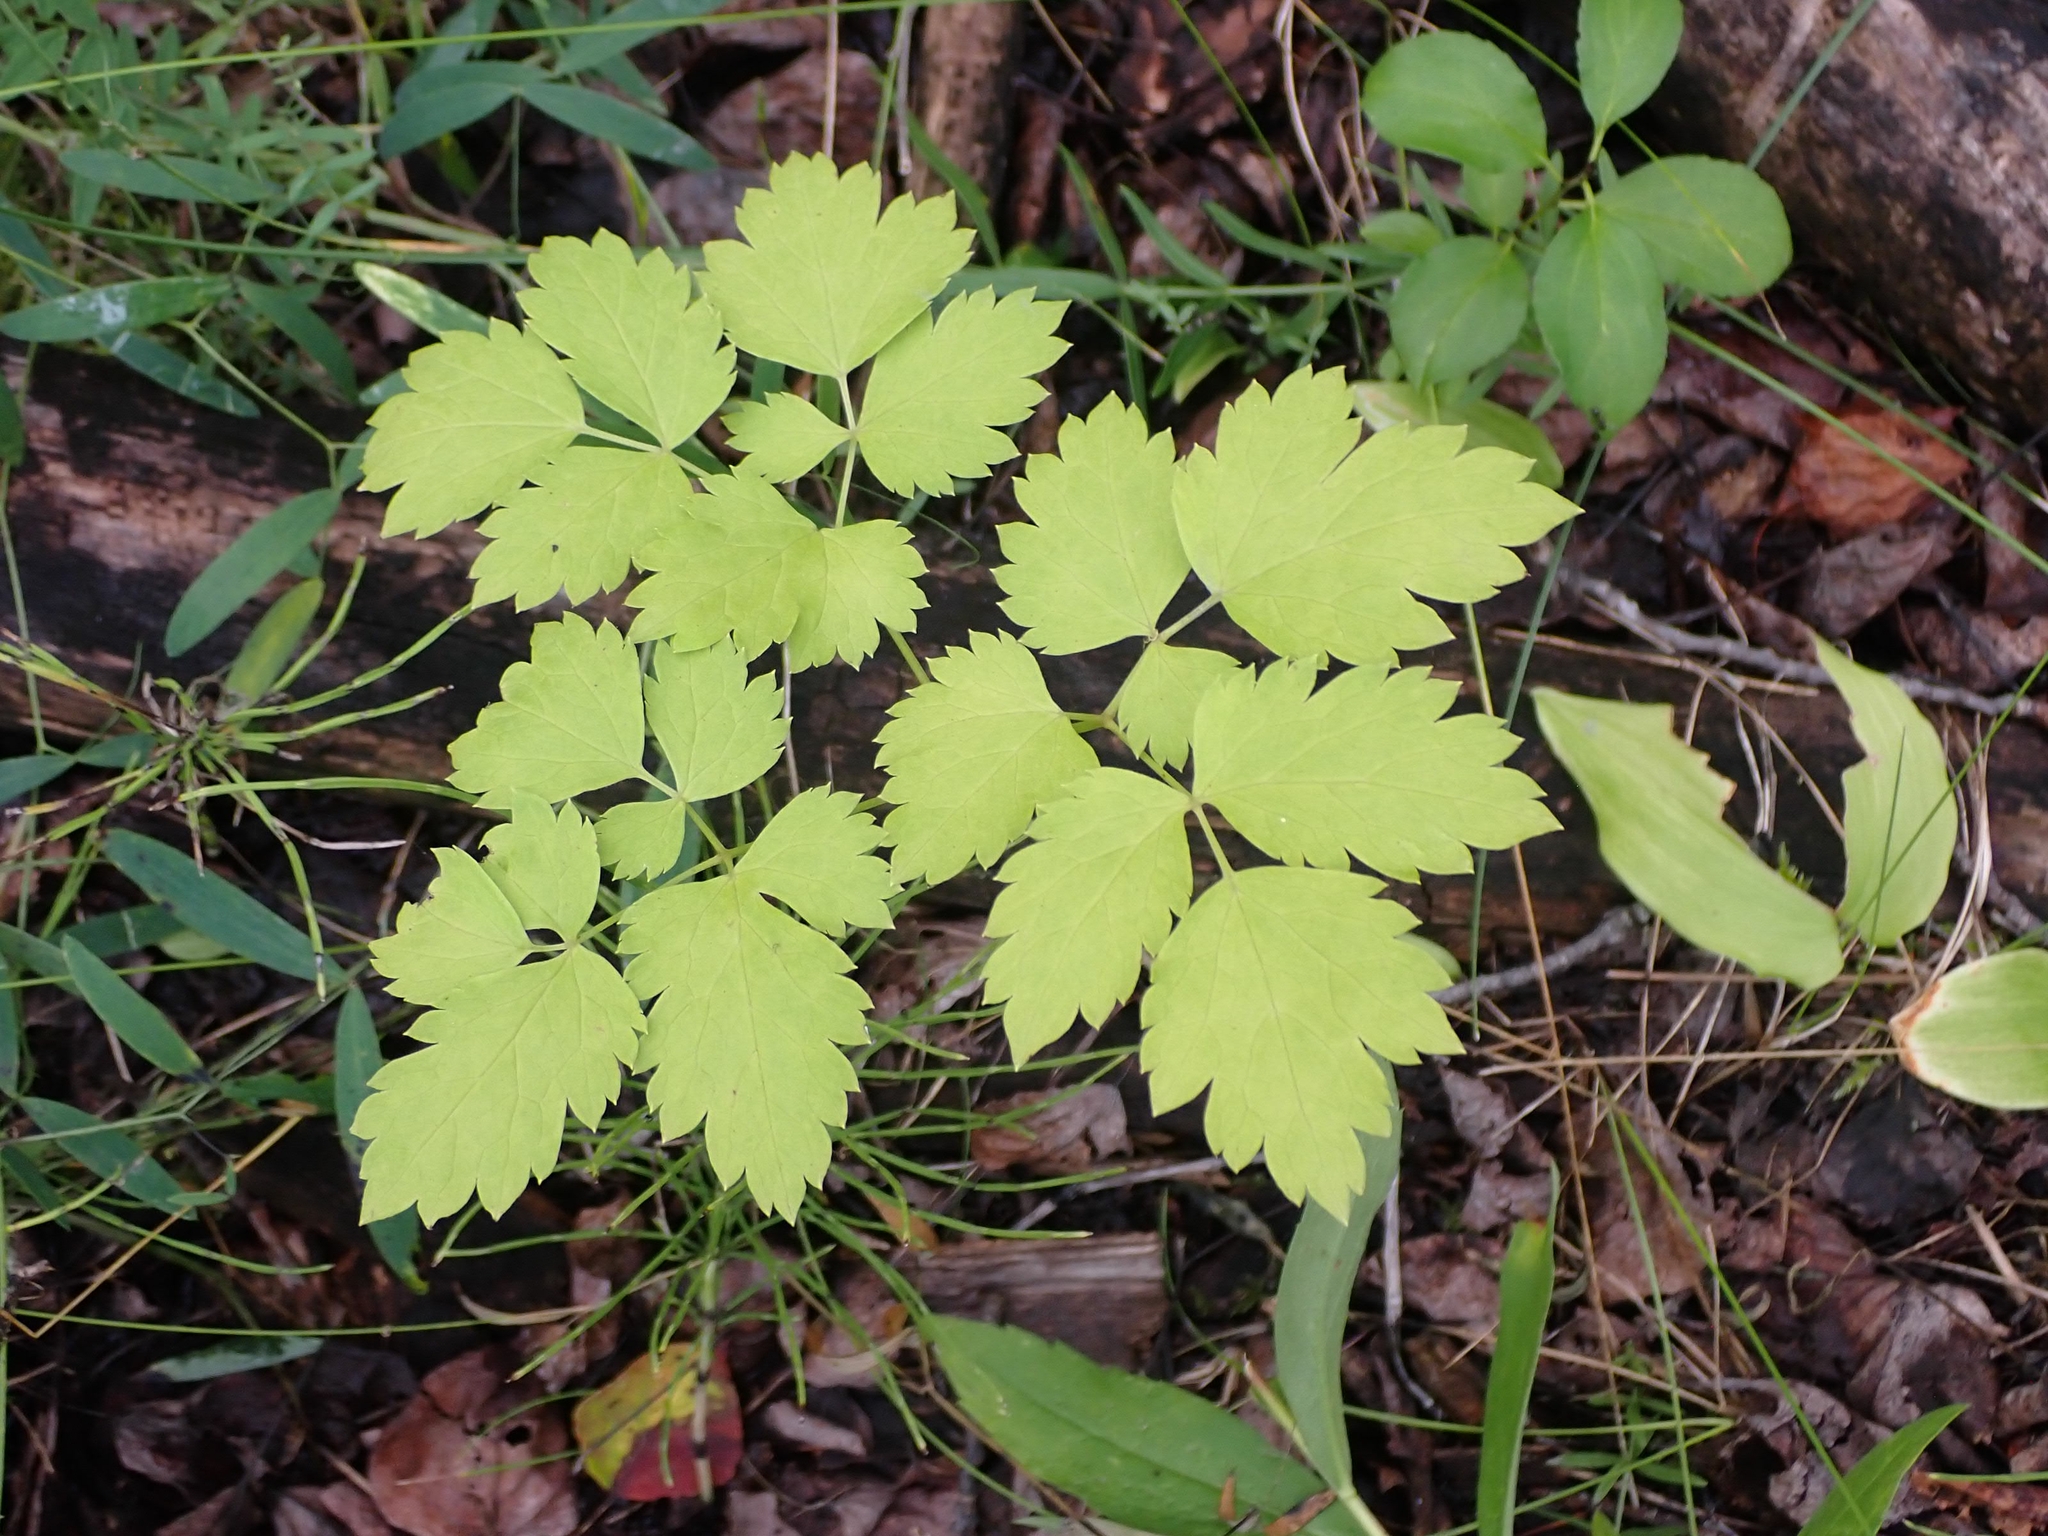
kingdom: Plantae
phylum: Tracheophyta
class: Magnoliopsida
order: Ranunculales
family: Ranunculaceae
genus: Actaea
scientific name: Actaea rubra
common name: Red baneberry
